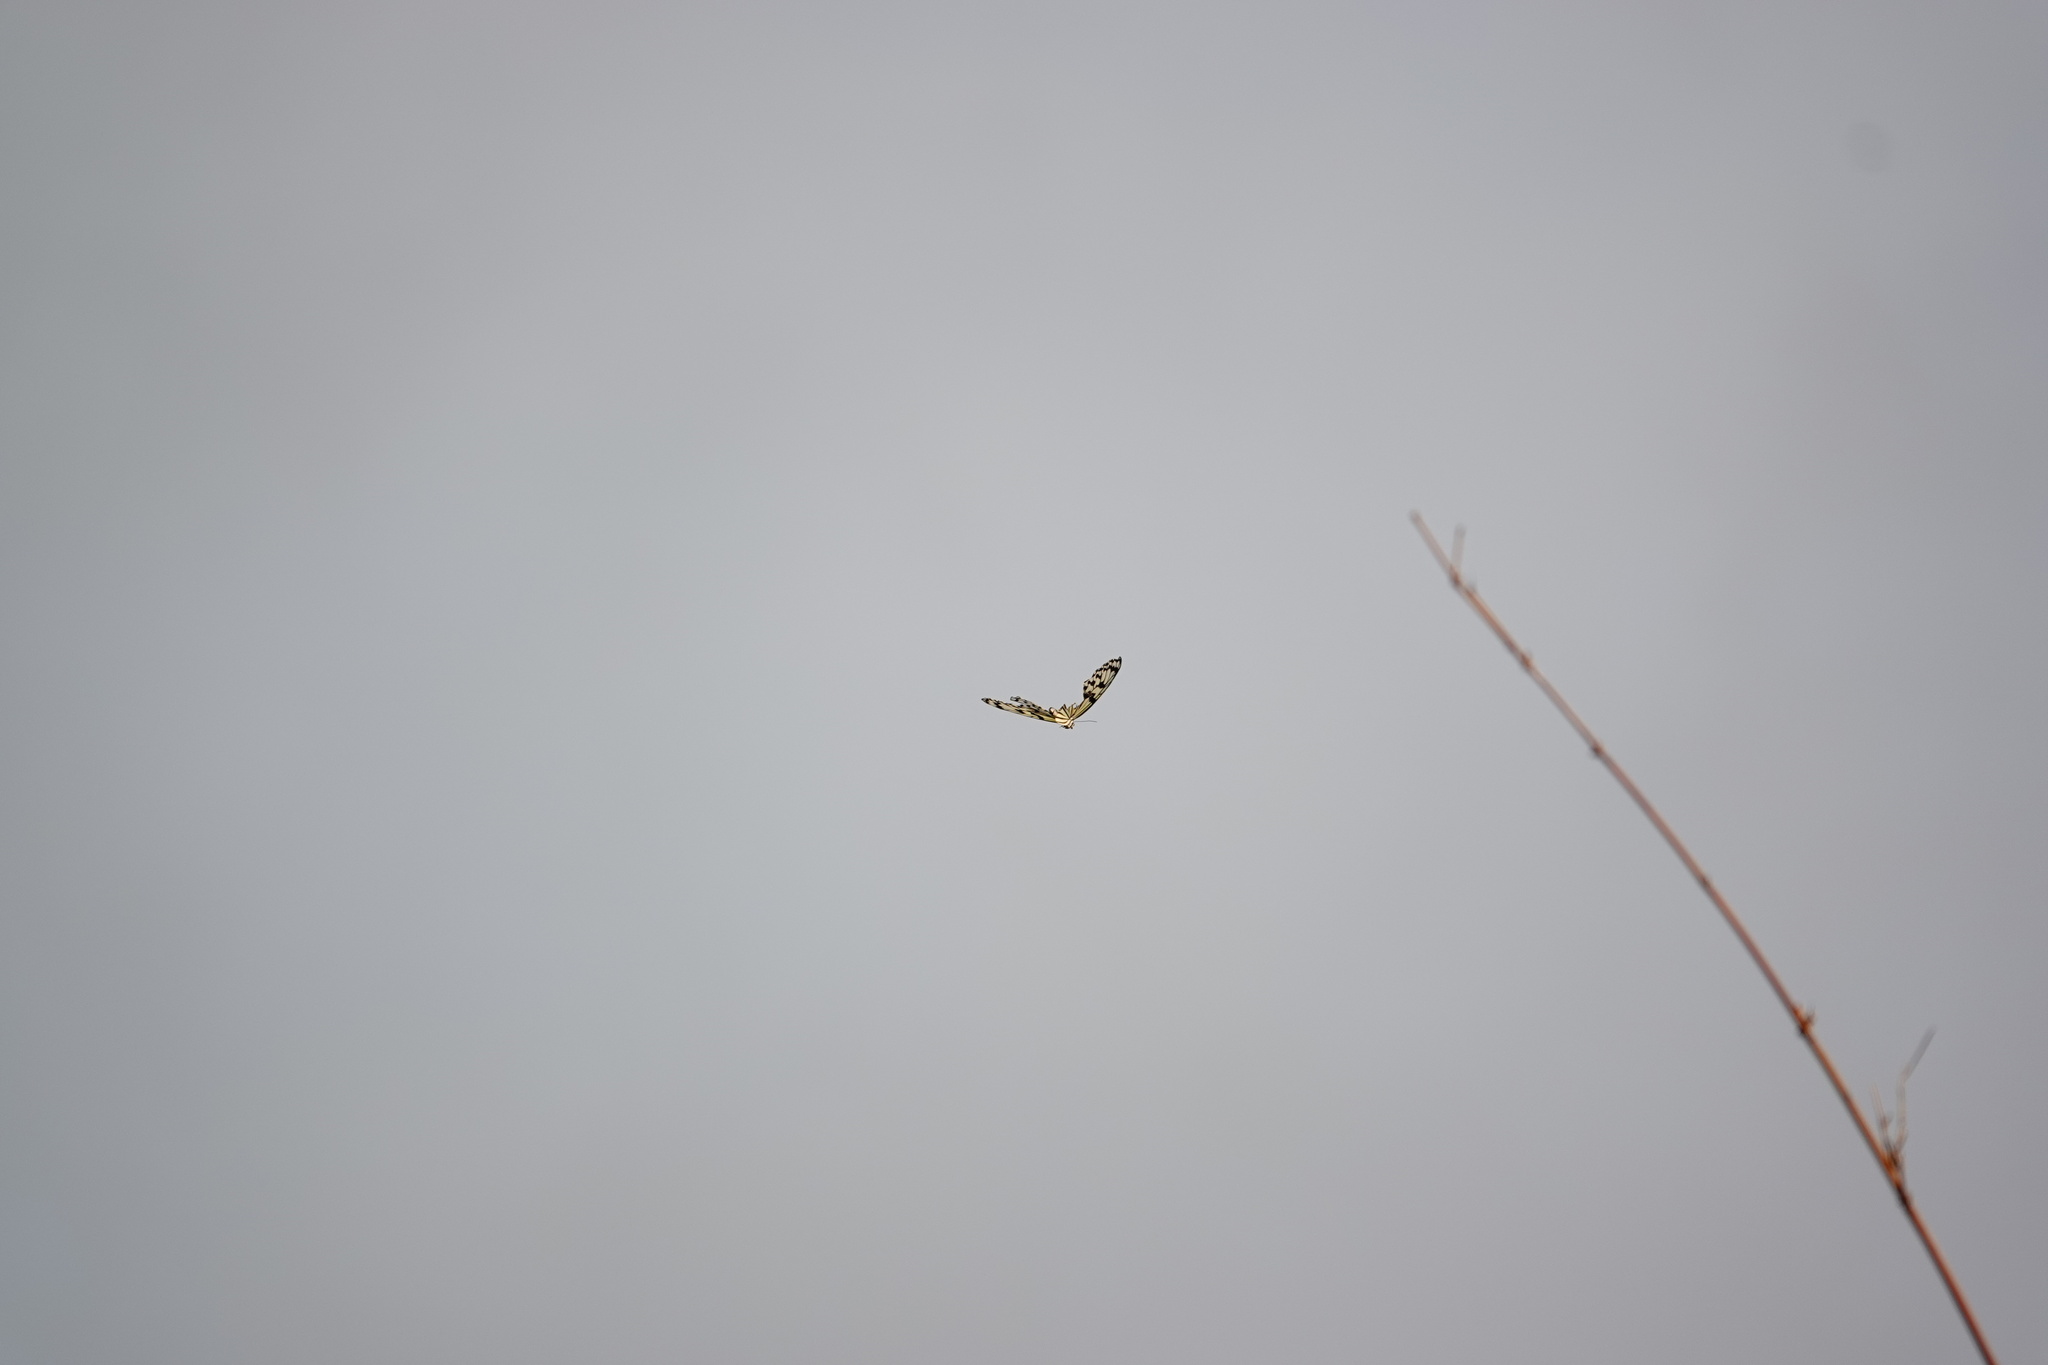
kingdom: Animalia
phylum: Arthropoda
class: Insecta
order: Lepidoptera
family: Nymphalidae
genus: Idea
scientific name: Idea leuconoe
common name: Rice paper butterfly
